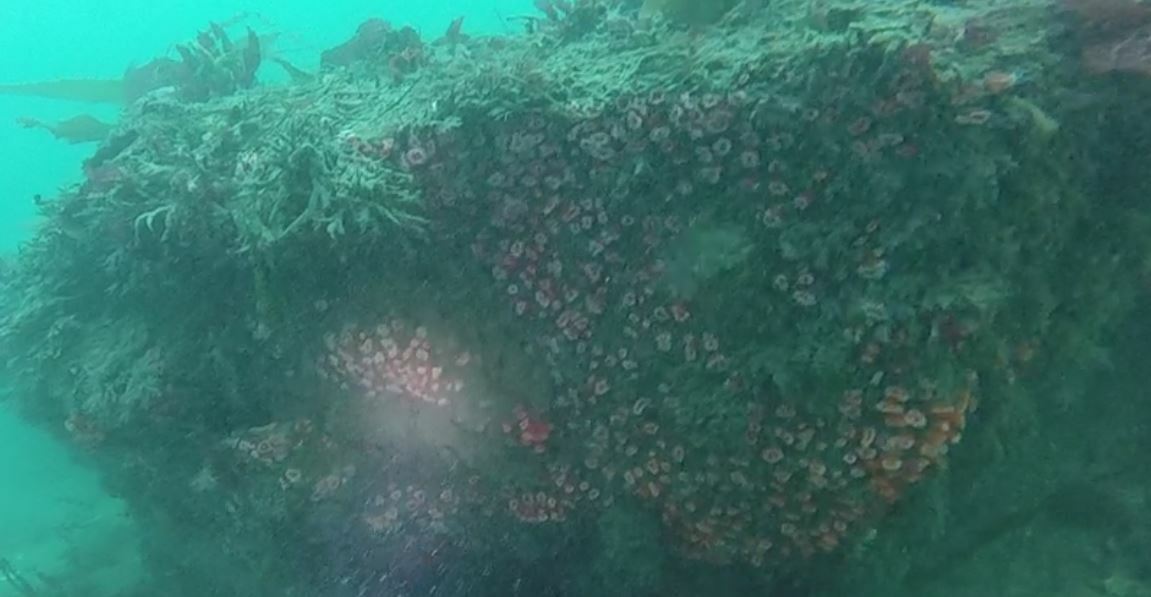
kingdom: Animalia
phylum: Cnidaria
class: Anthozoa
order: Corallimorpharia
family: Corallimorphidae
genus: Corynactis
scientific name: Corynactis californica
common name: Strawberry corallimorpharian
